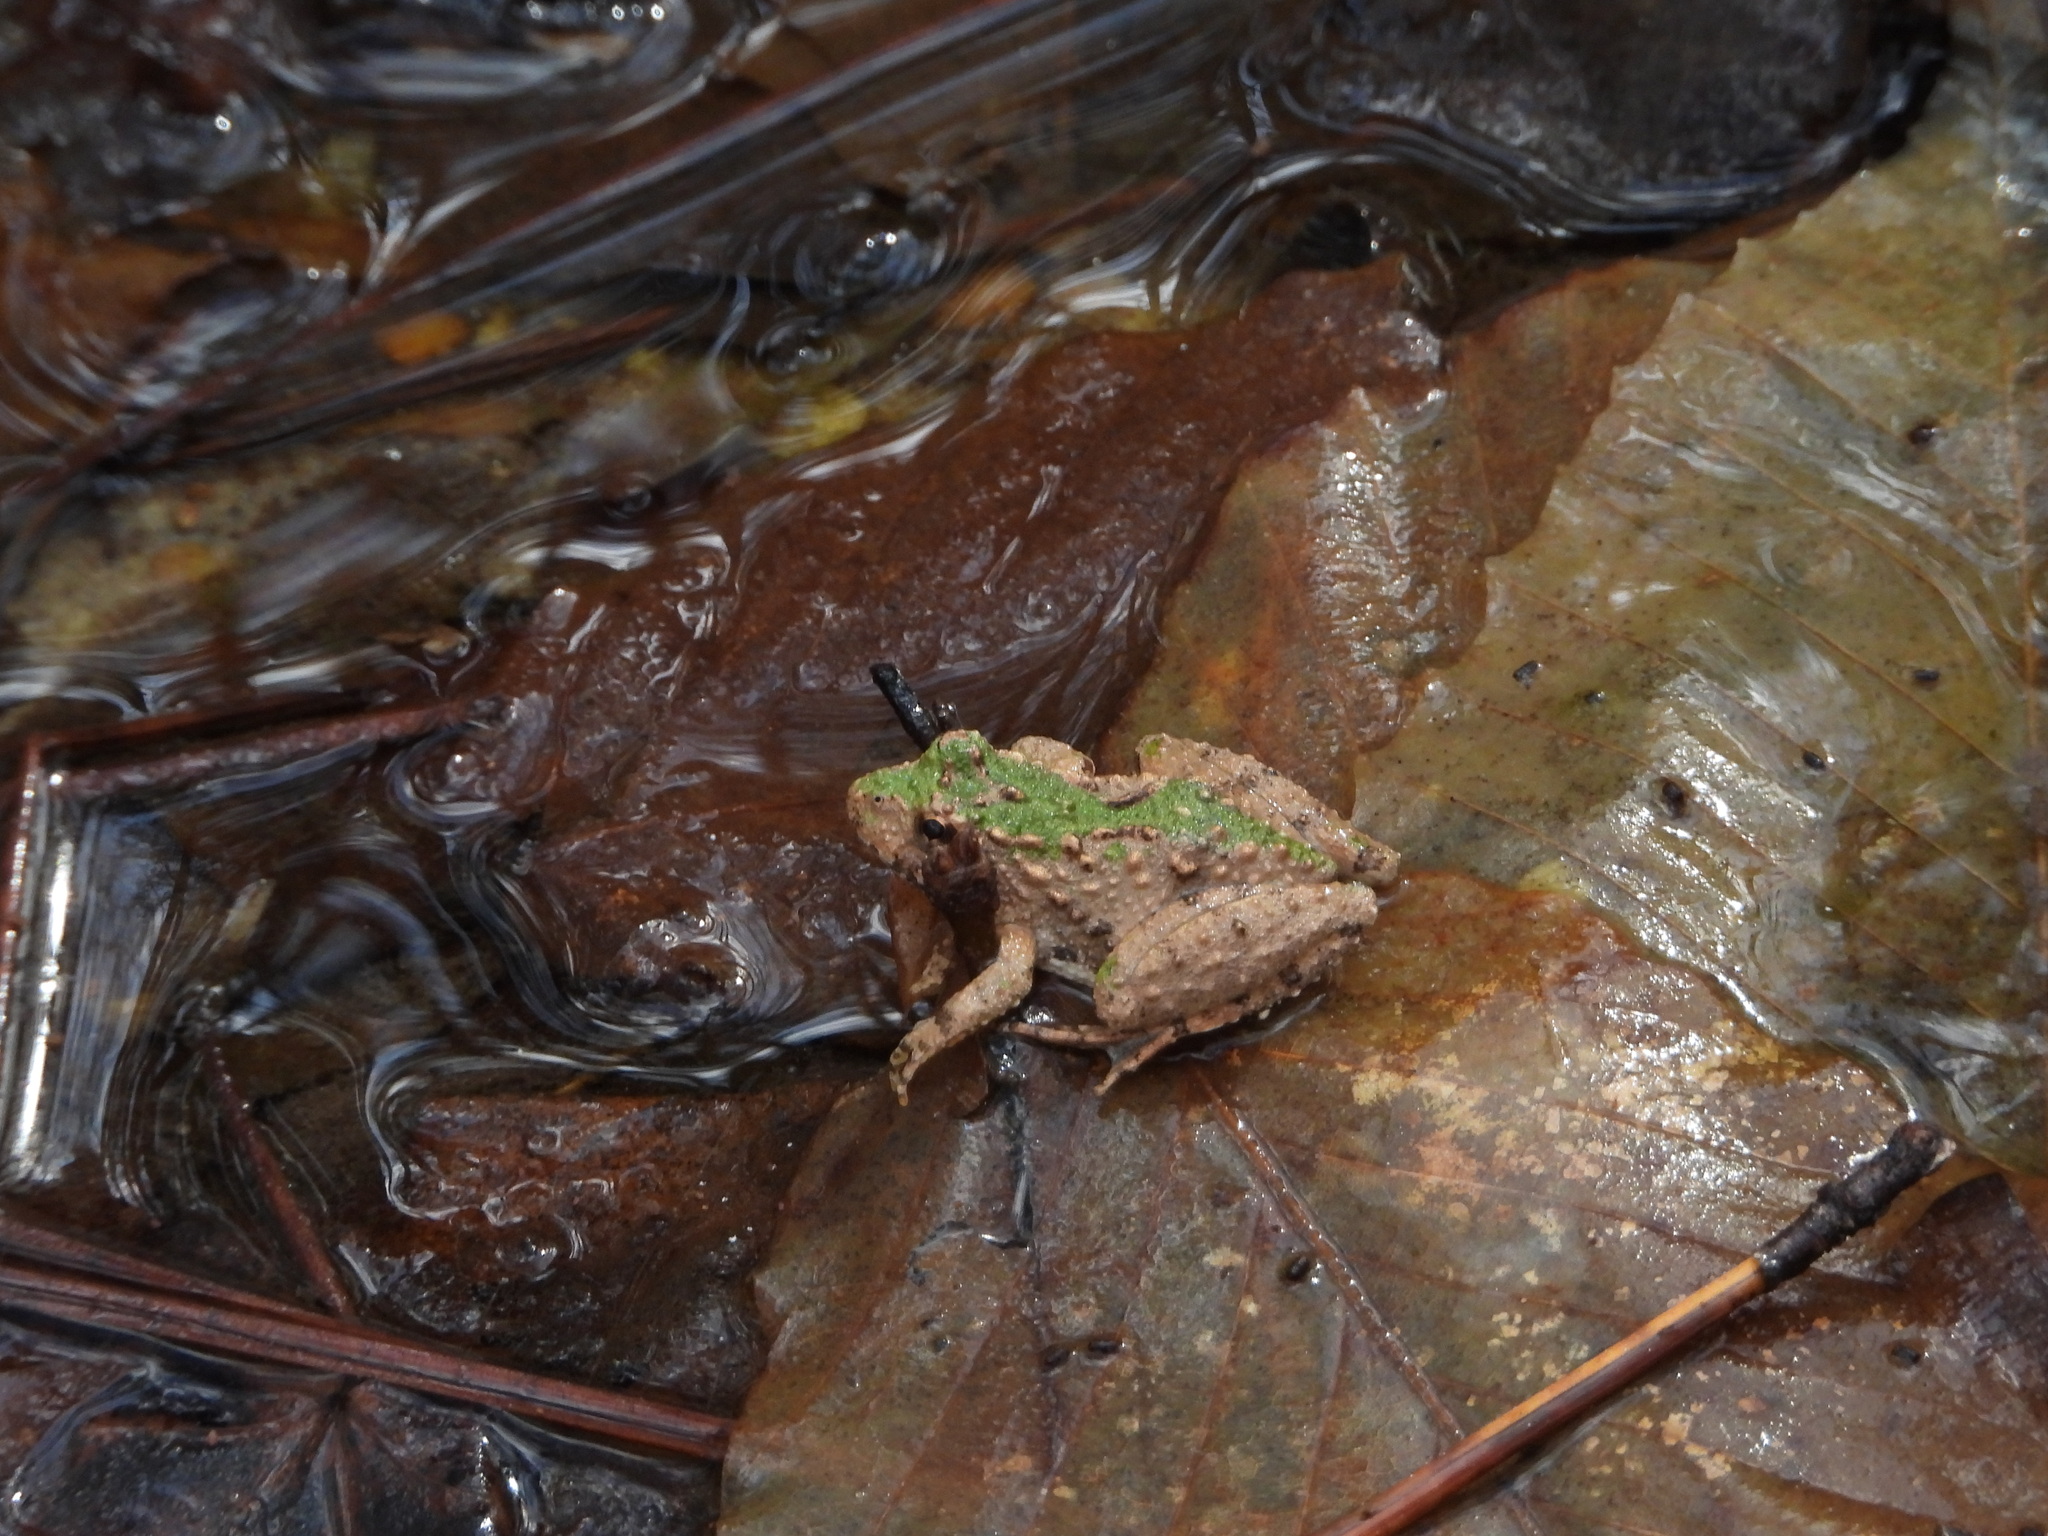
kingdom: Animalia
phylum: Chordata
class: Amphibia
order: Anura
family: Hylidae
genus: Acris
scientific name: Acris crepitans
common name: Northern cricket frog
